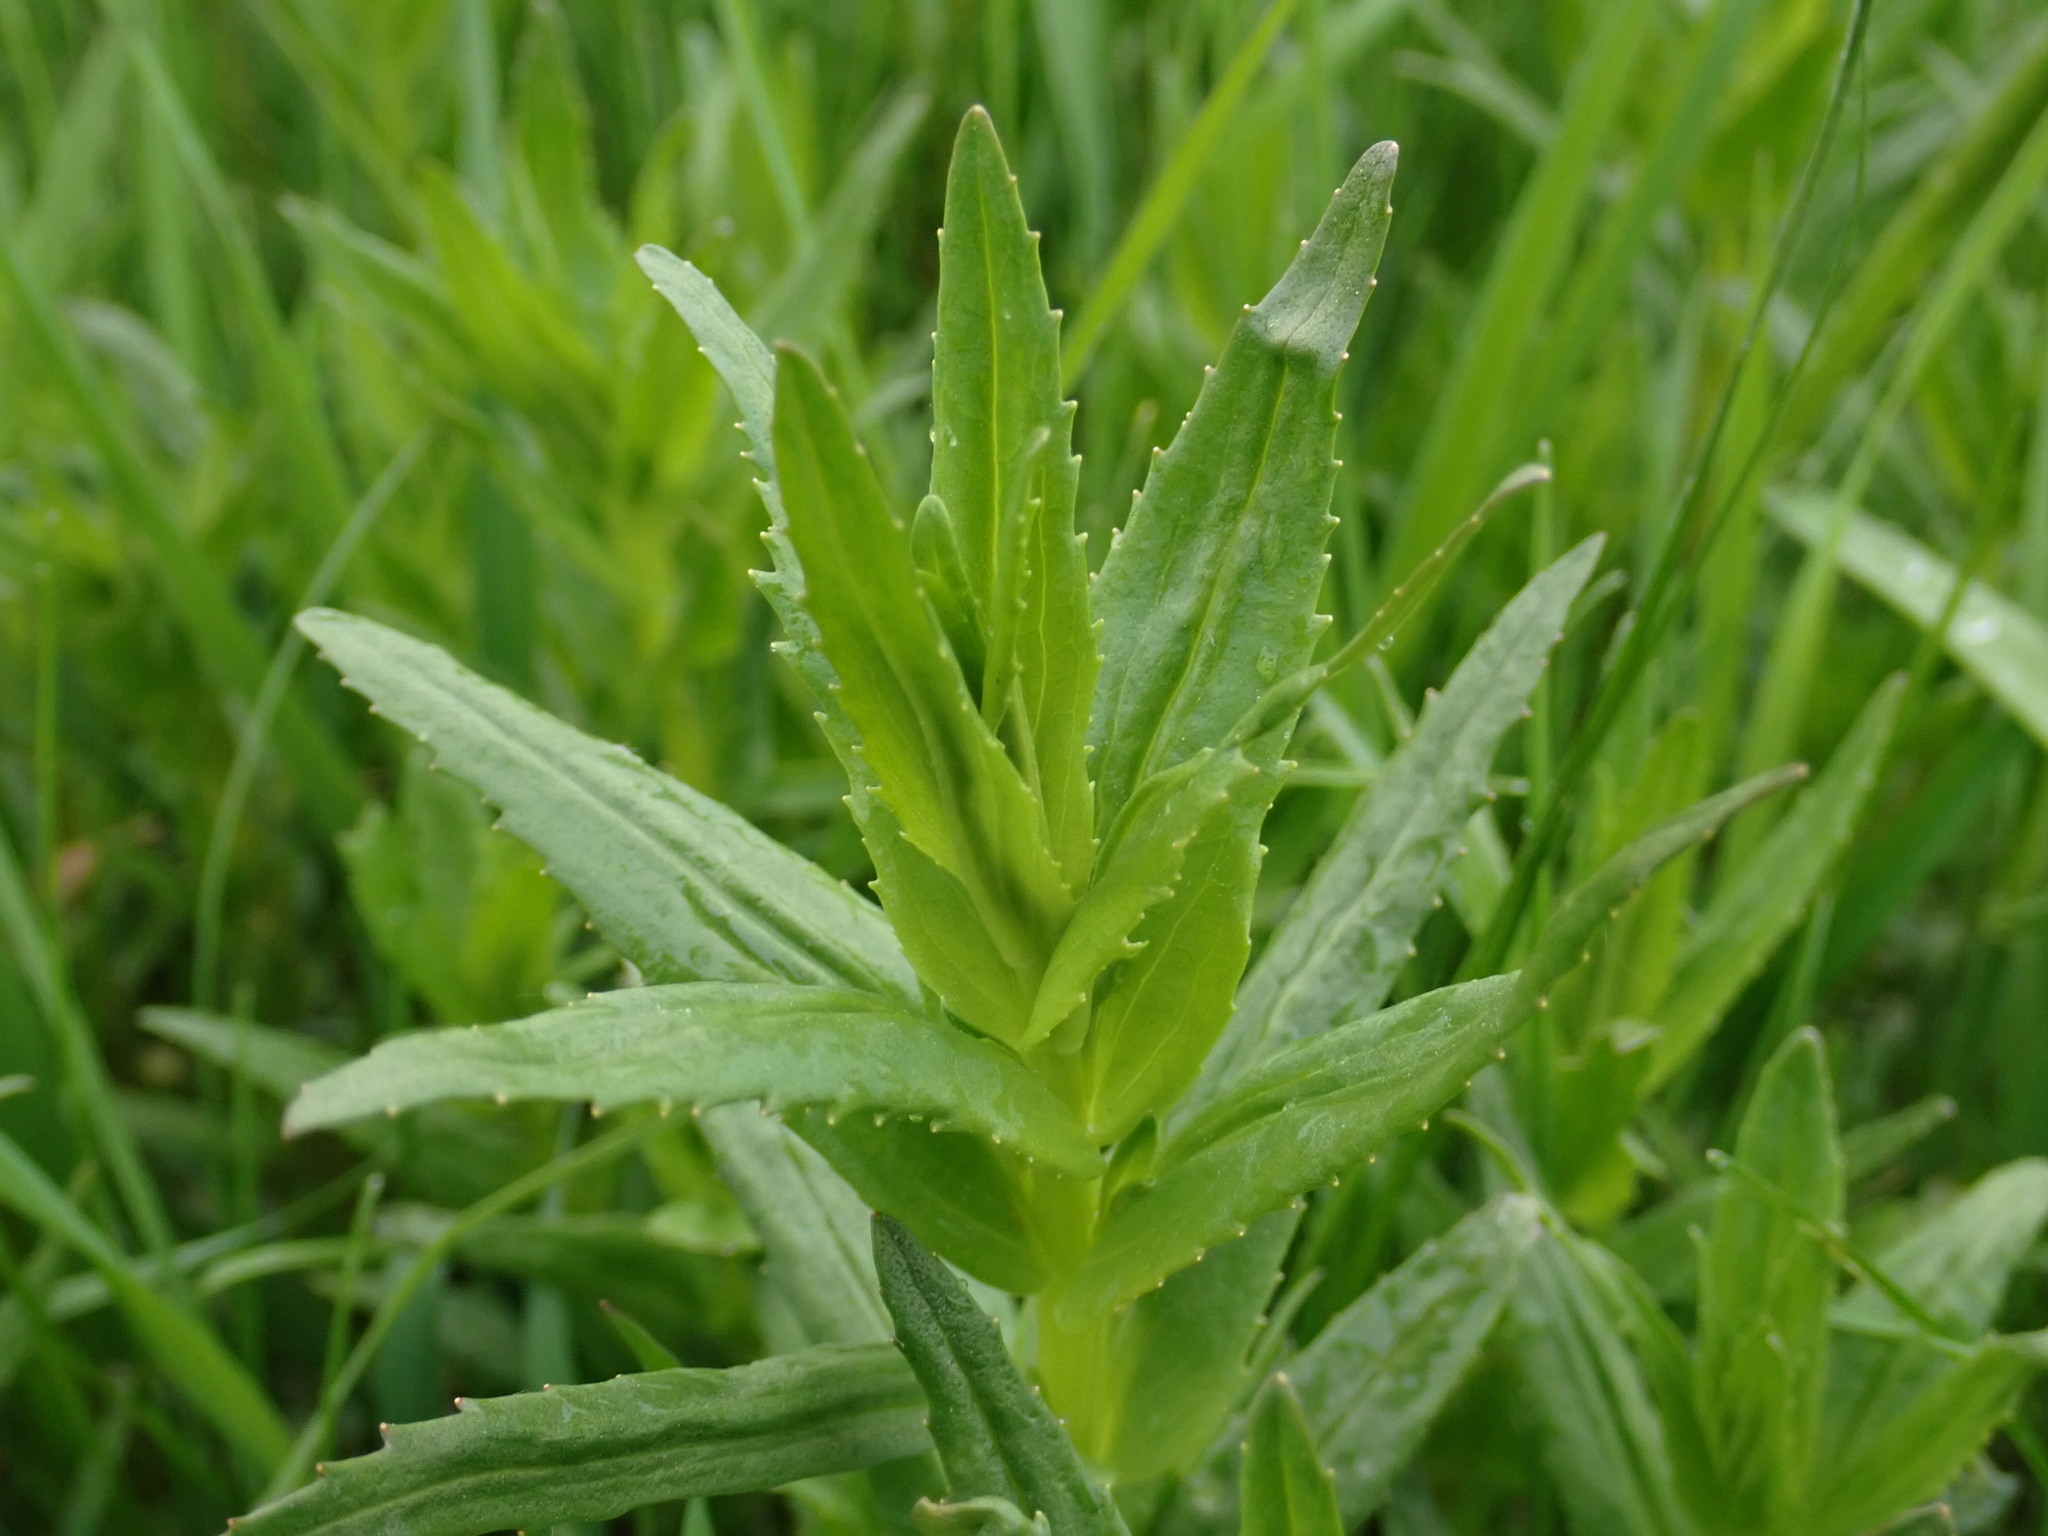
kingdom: Plantae
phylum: Tracheophyta
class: Magnoliopsida
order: Lamiales
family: Plantaginaceae
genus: Gratiola
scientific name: Gratiola officinalis
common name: Gratiola
